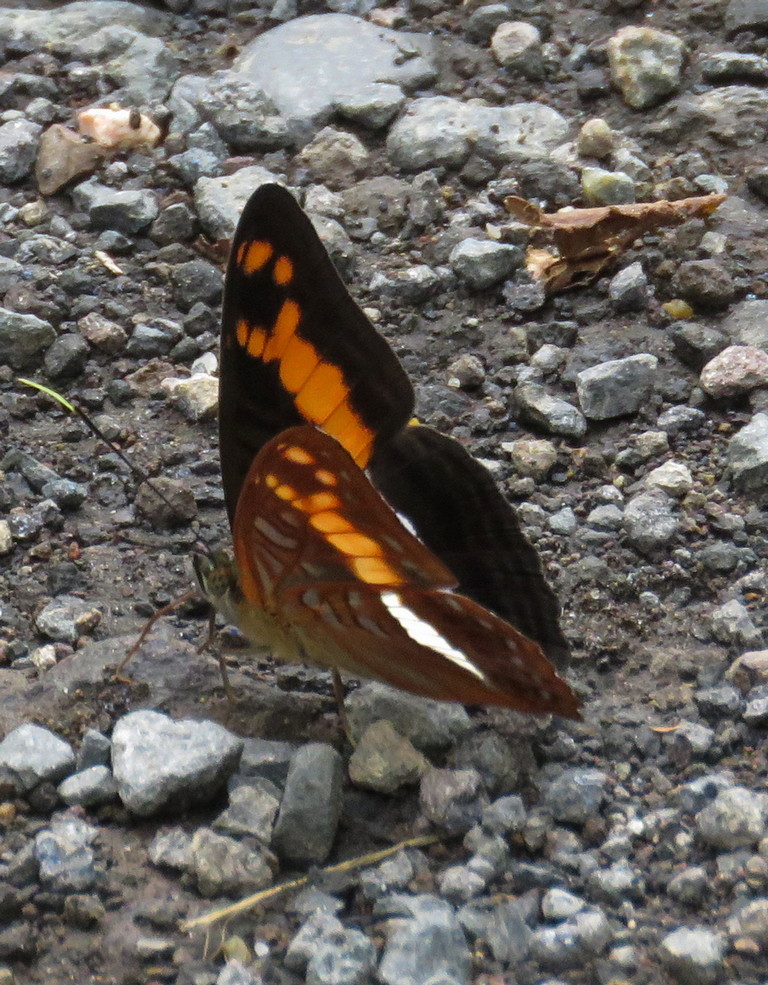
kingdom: Animalia
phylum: Arthropoda
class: Insecta
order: Lepidoptera
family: Nymphalidae
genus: Limenitis
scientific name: Limenitis sichaeus
